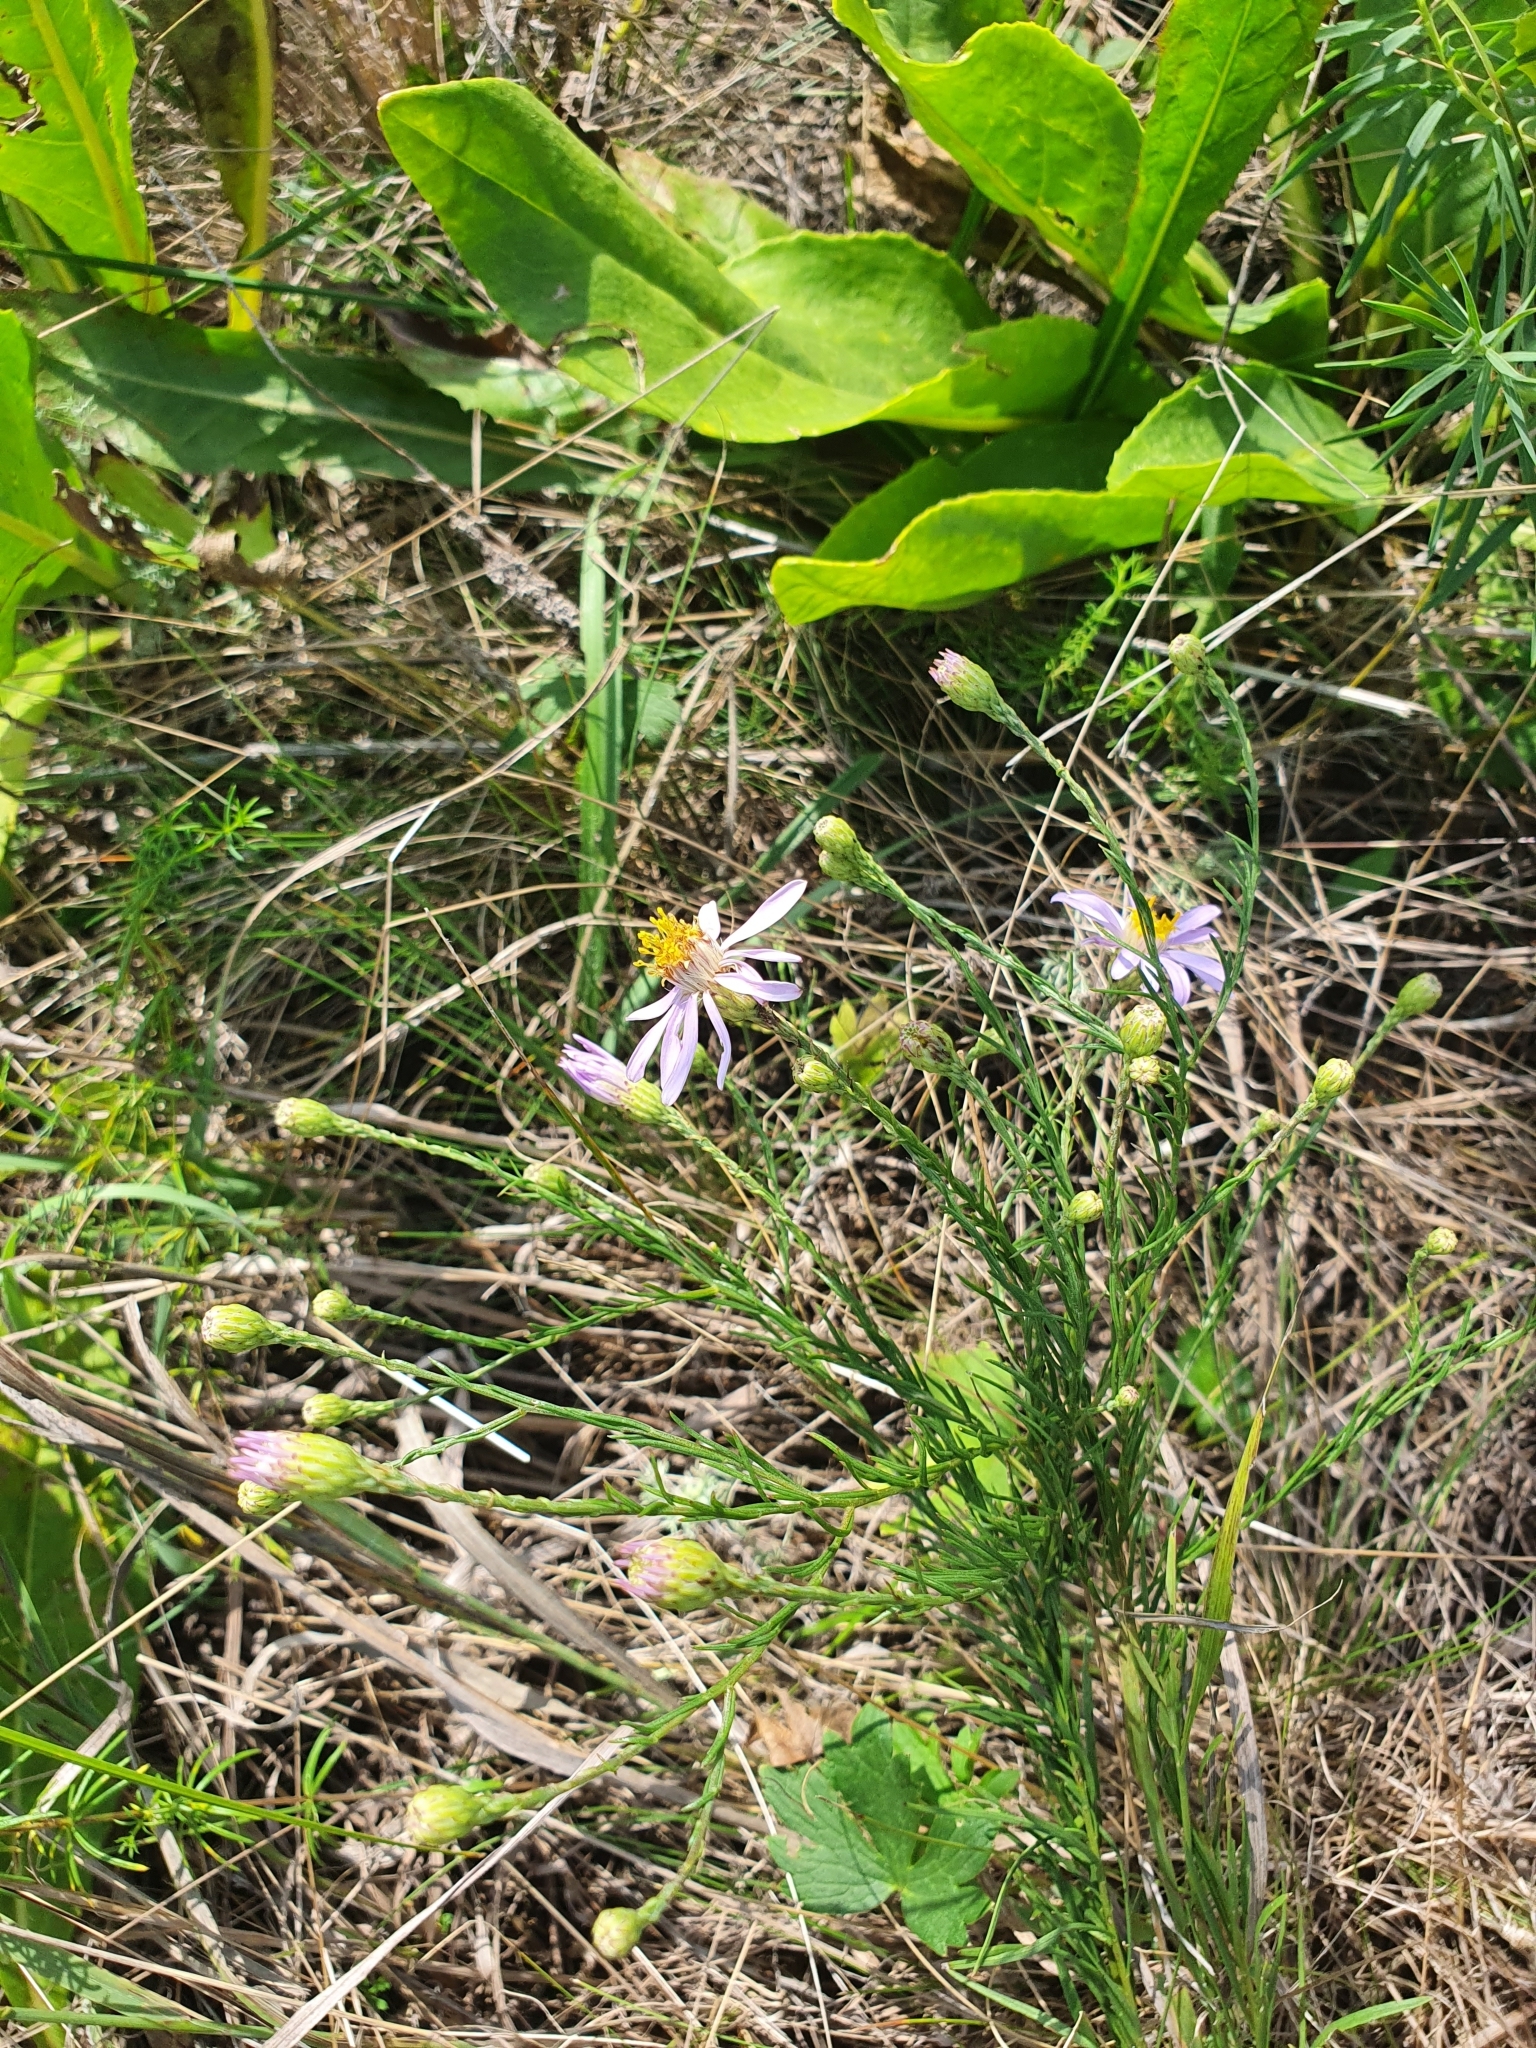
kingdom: Plantae
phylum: Tracheophyta
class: Magnoliopsida
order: Asterales
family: Asteraceae
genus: Galatella
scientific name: Galatella angustissima
